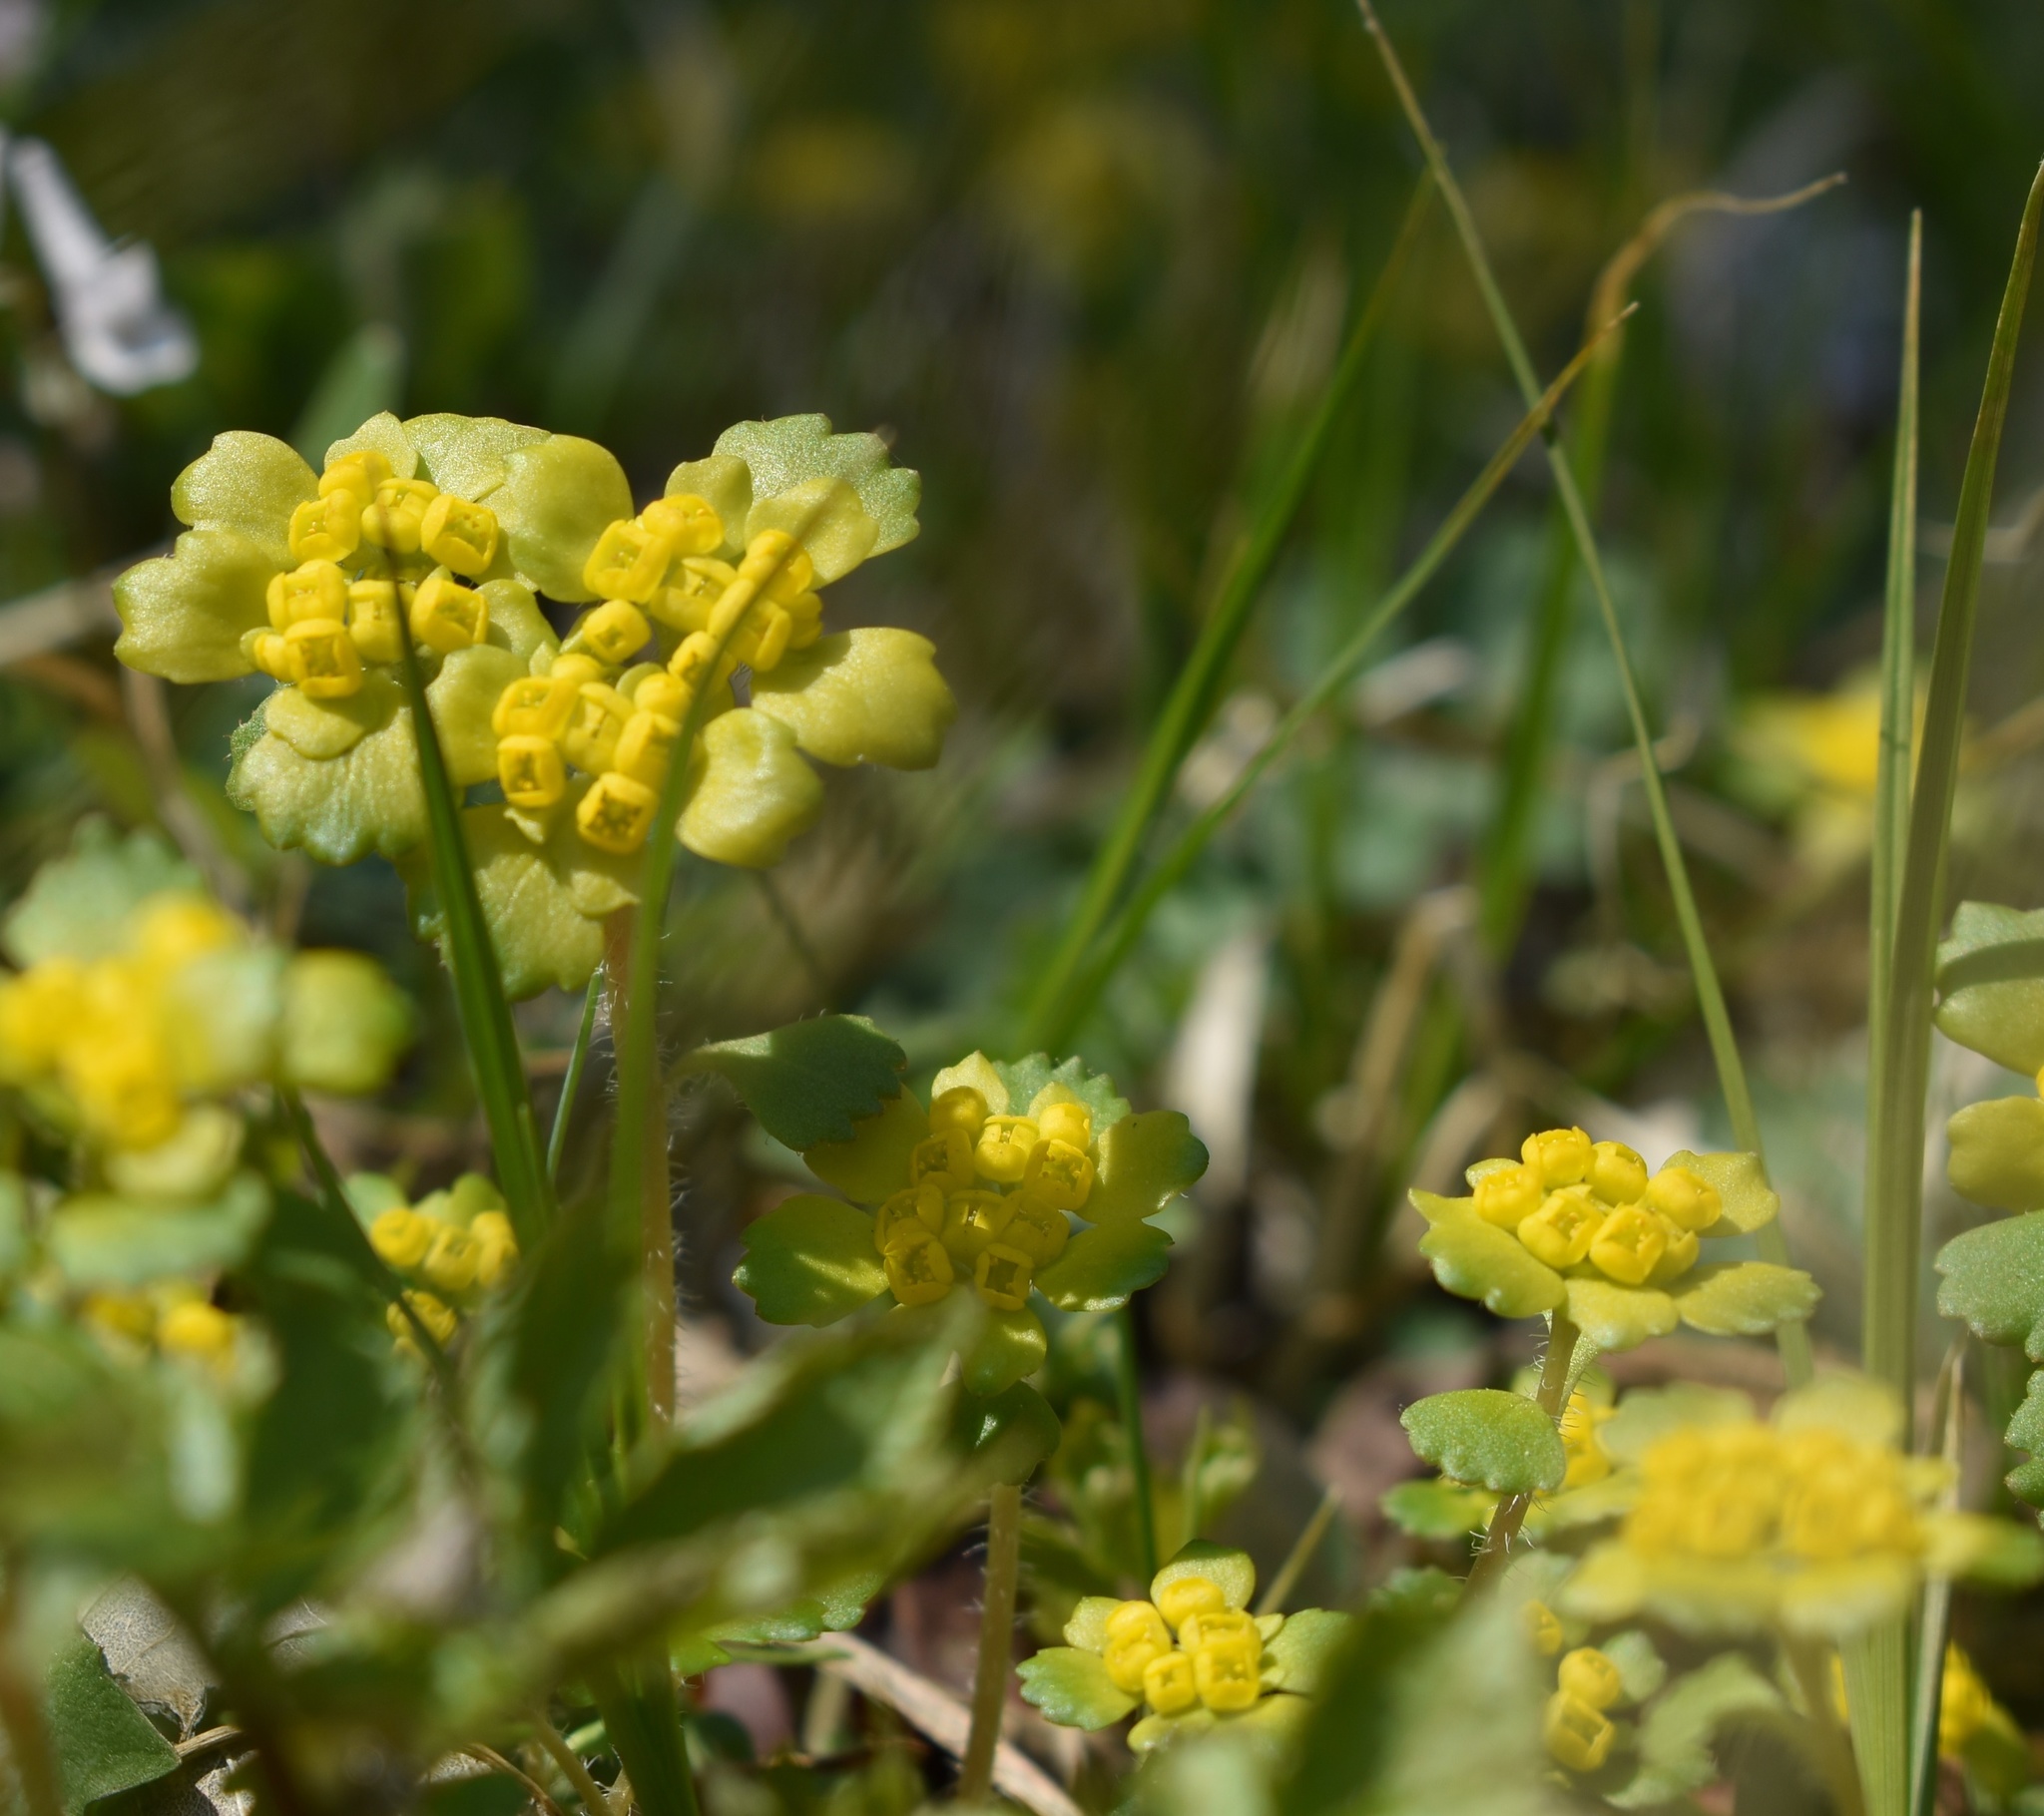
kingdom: Plantae
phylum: Tracheophyta
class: Magnoliopsida
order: Saxifragales
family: Saxifragaceae
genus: Chrysosplenium
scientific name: Chrysosplenium pilosum
